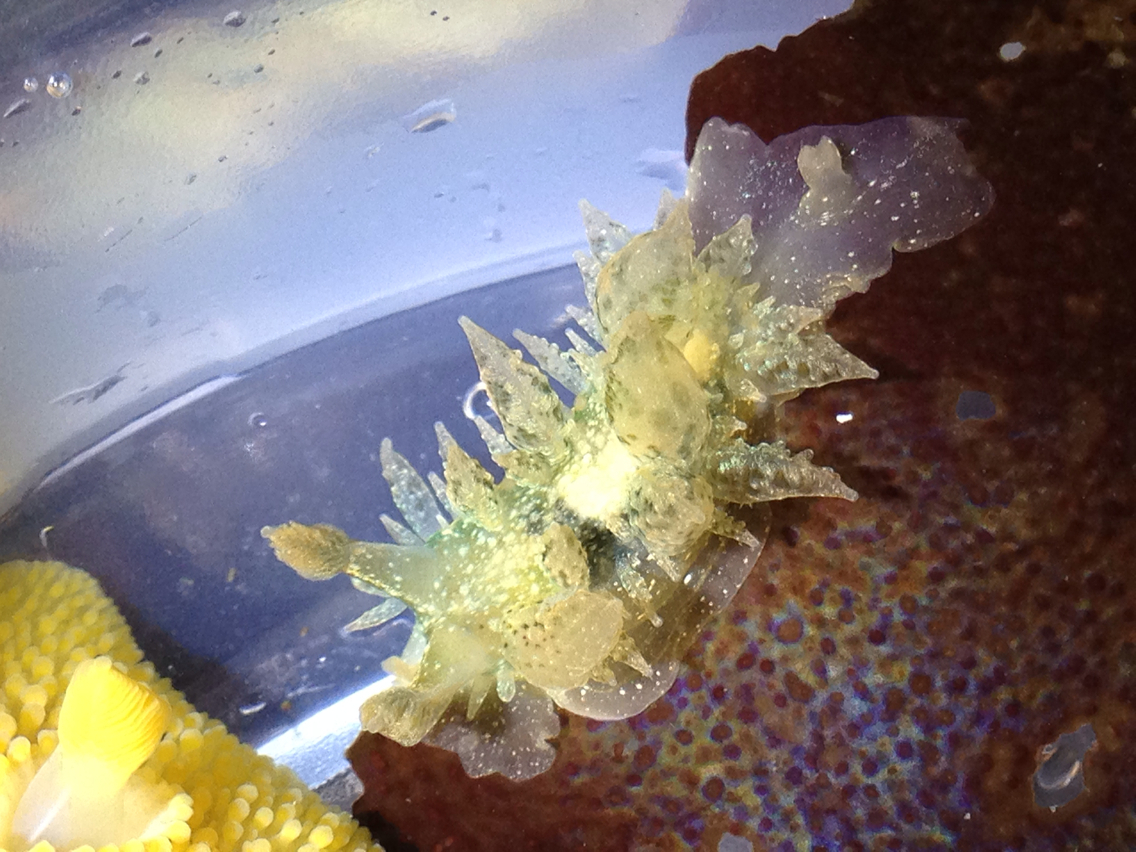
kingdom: Animalia
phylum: Mollusca
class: Gastropoda
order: Nudibranchia
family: Dironidae
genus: Dirona
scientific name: Dirona picta
